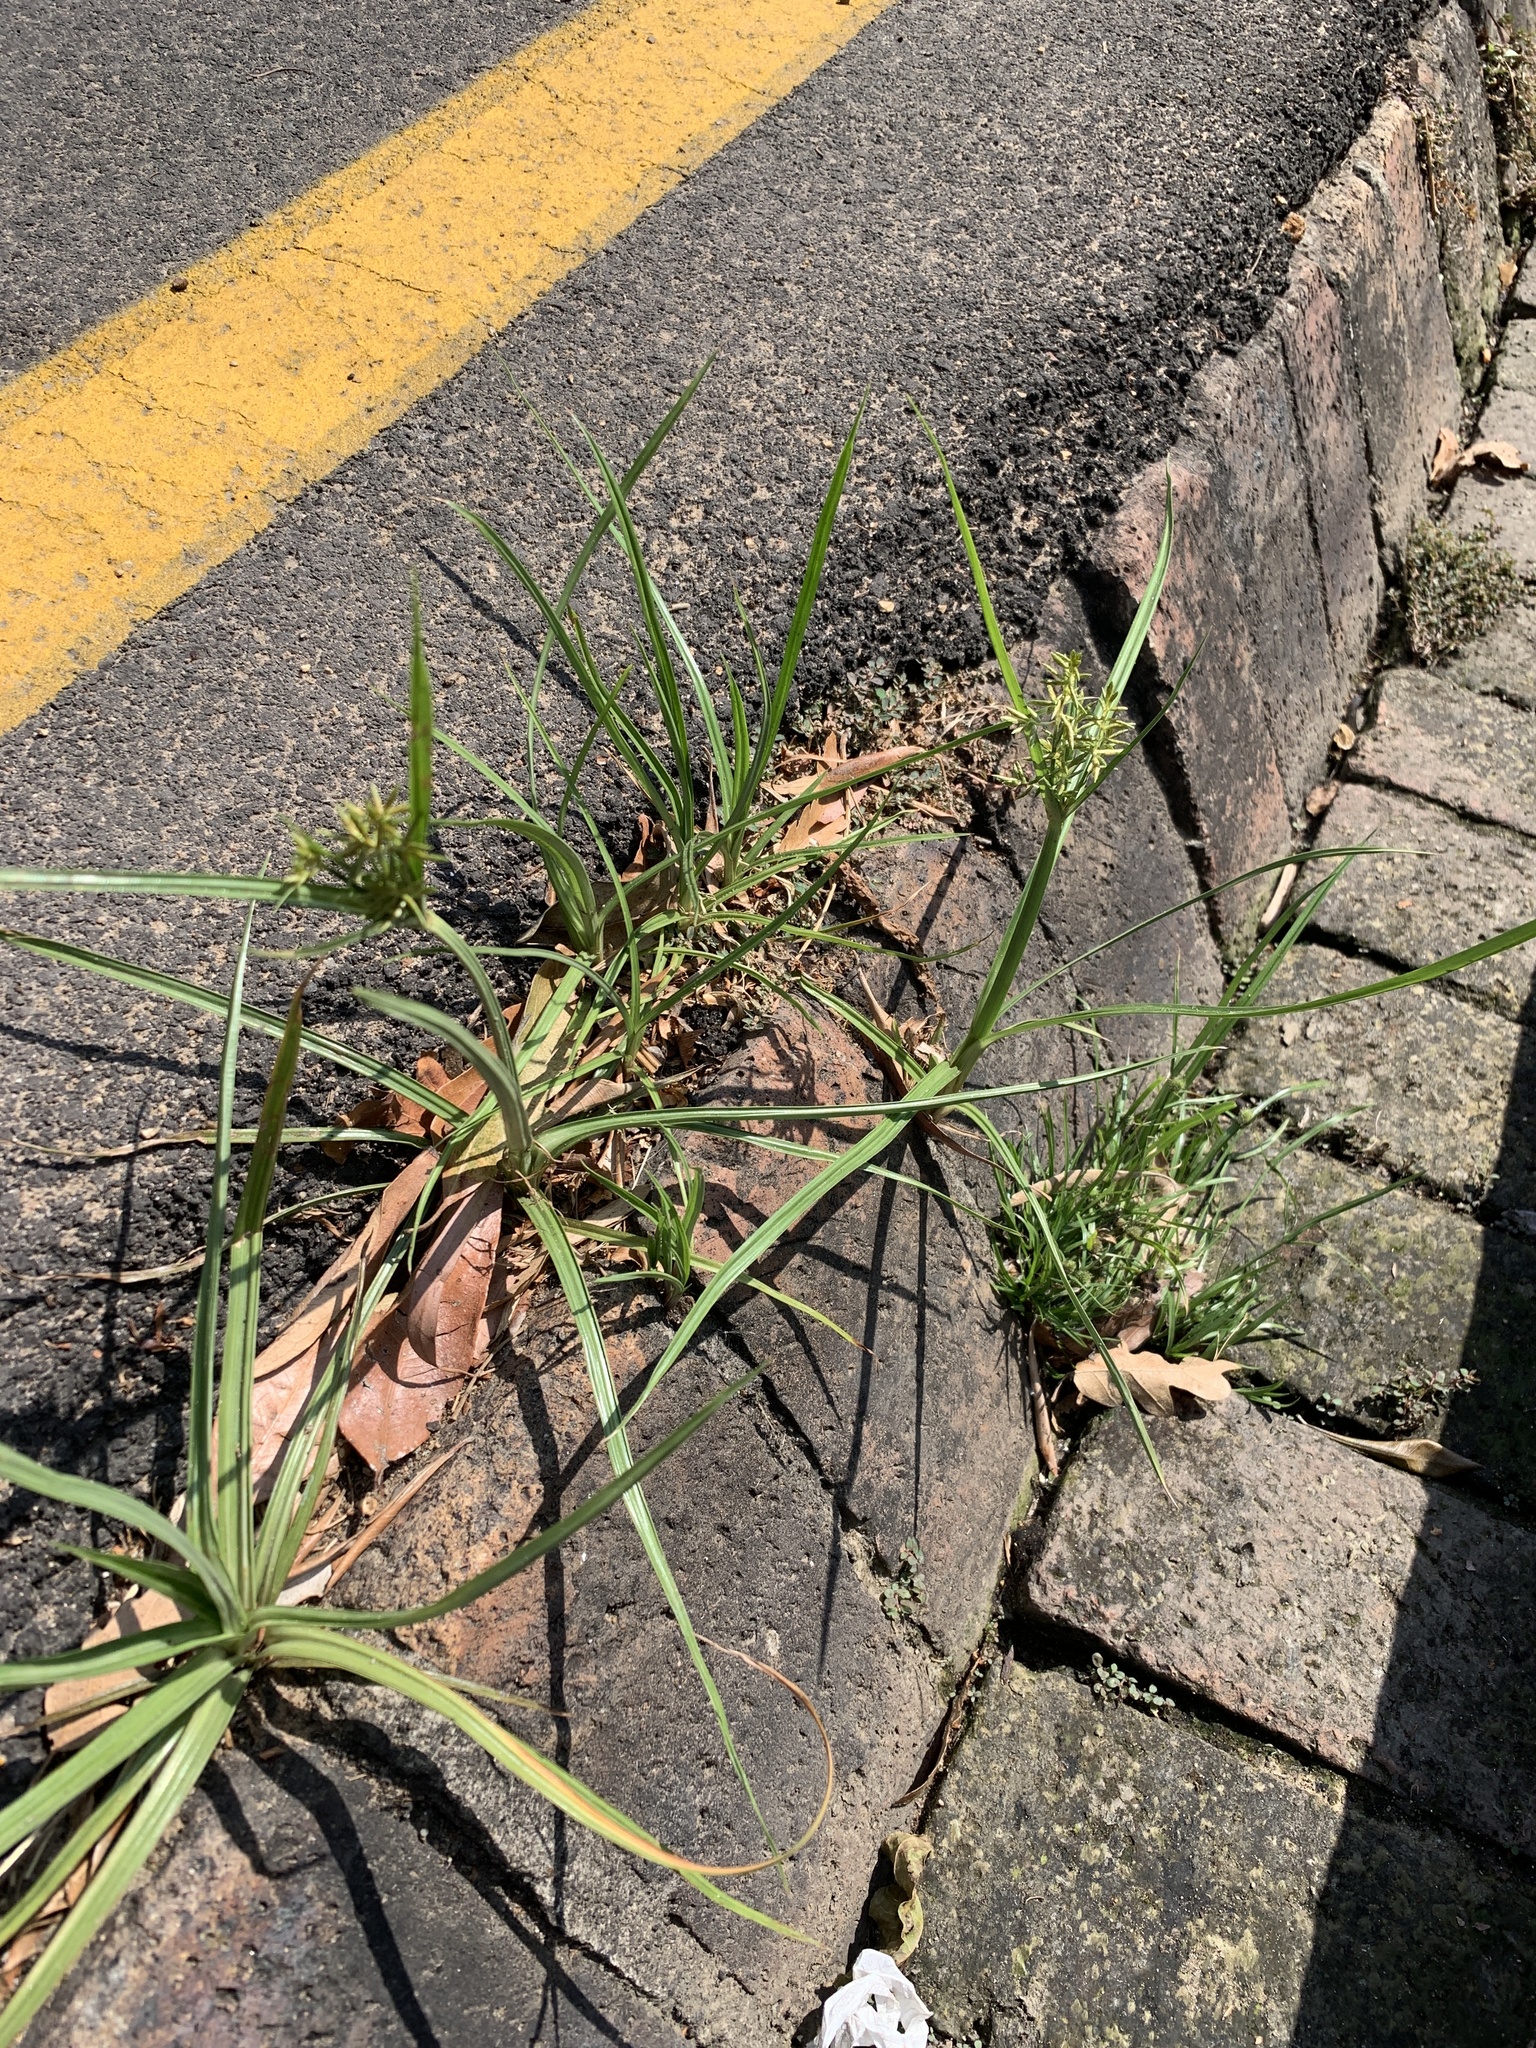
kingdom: Plantae
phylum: Tracheophyta
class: Liliopsida
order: Poales
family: Cyperaceae
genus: Cyperus
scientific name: Cyperus longus
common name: Galingale
